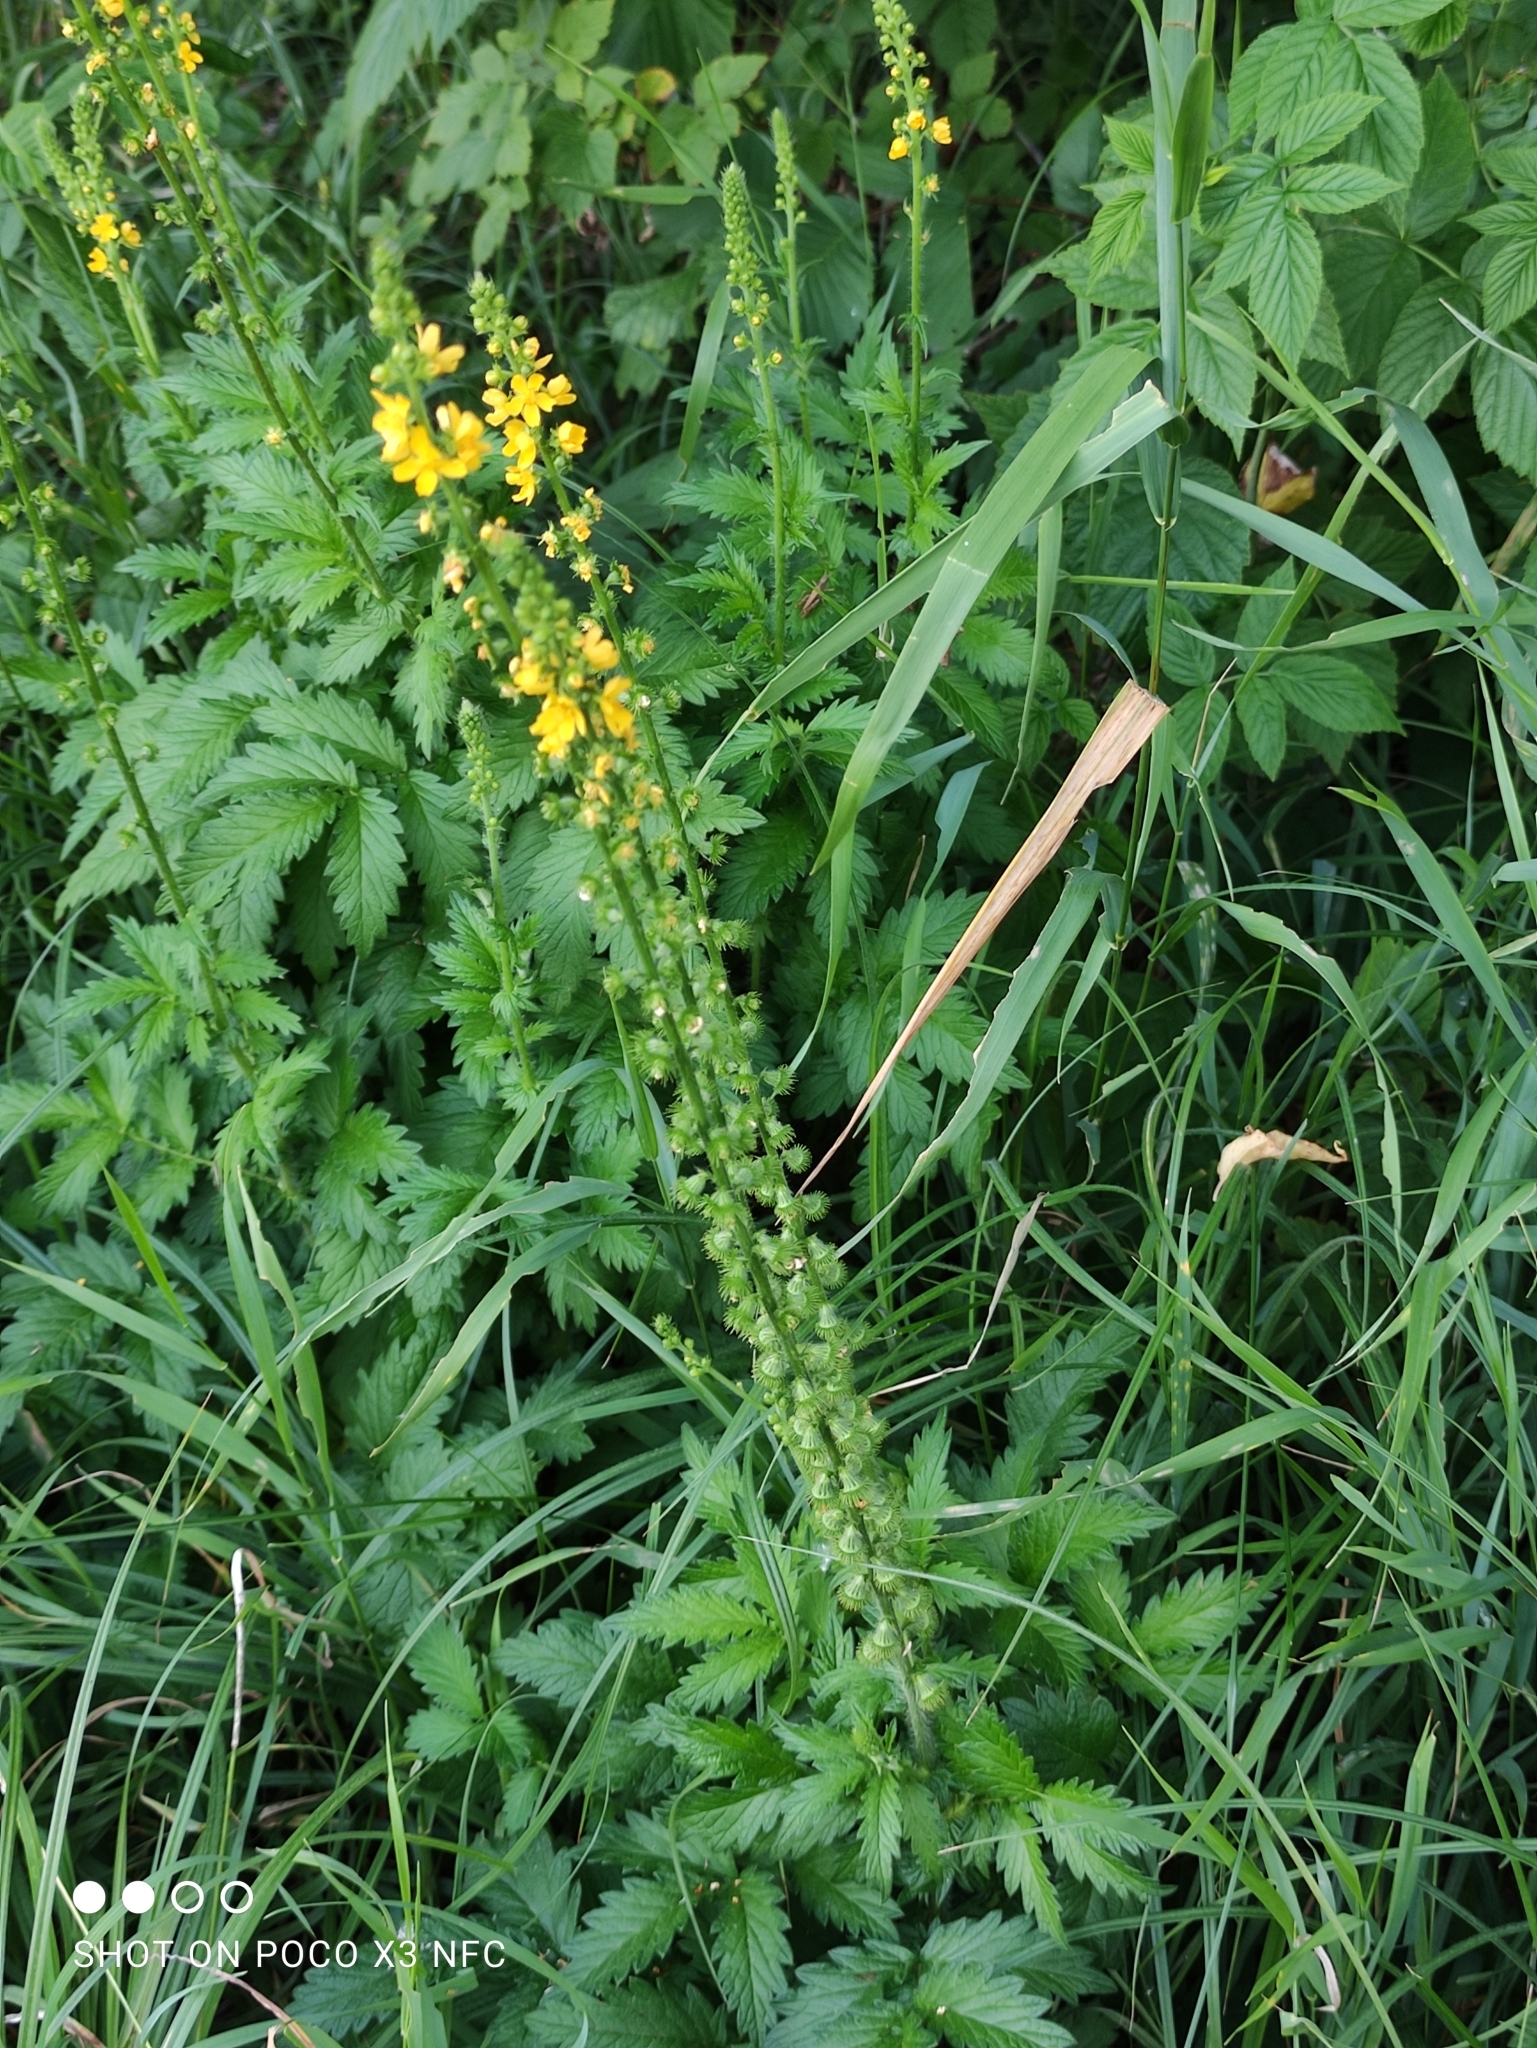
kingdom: Plantae
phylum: Tracheophyta
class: Magnoliopsida
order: Rosales
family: Rosaceae
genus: Agrimonia
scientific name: Agrimonia eupatoria
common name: Agrimony
